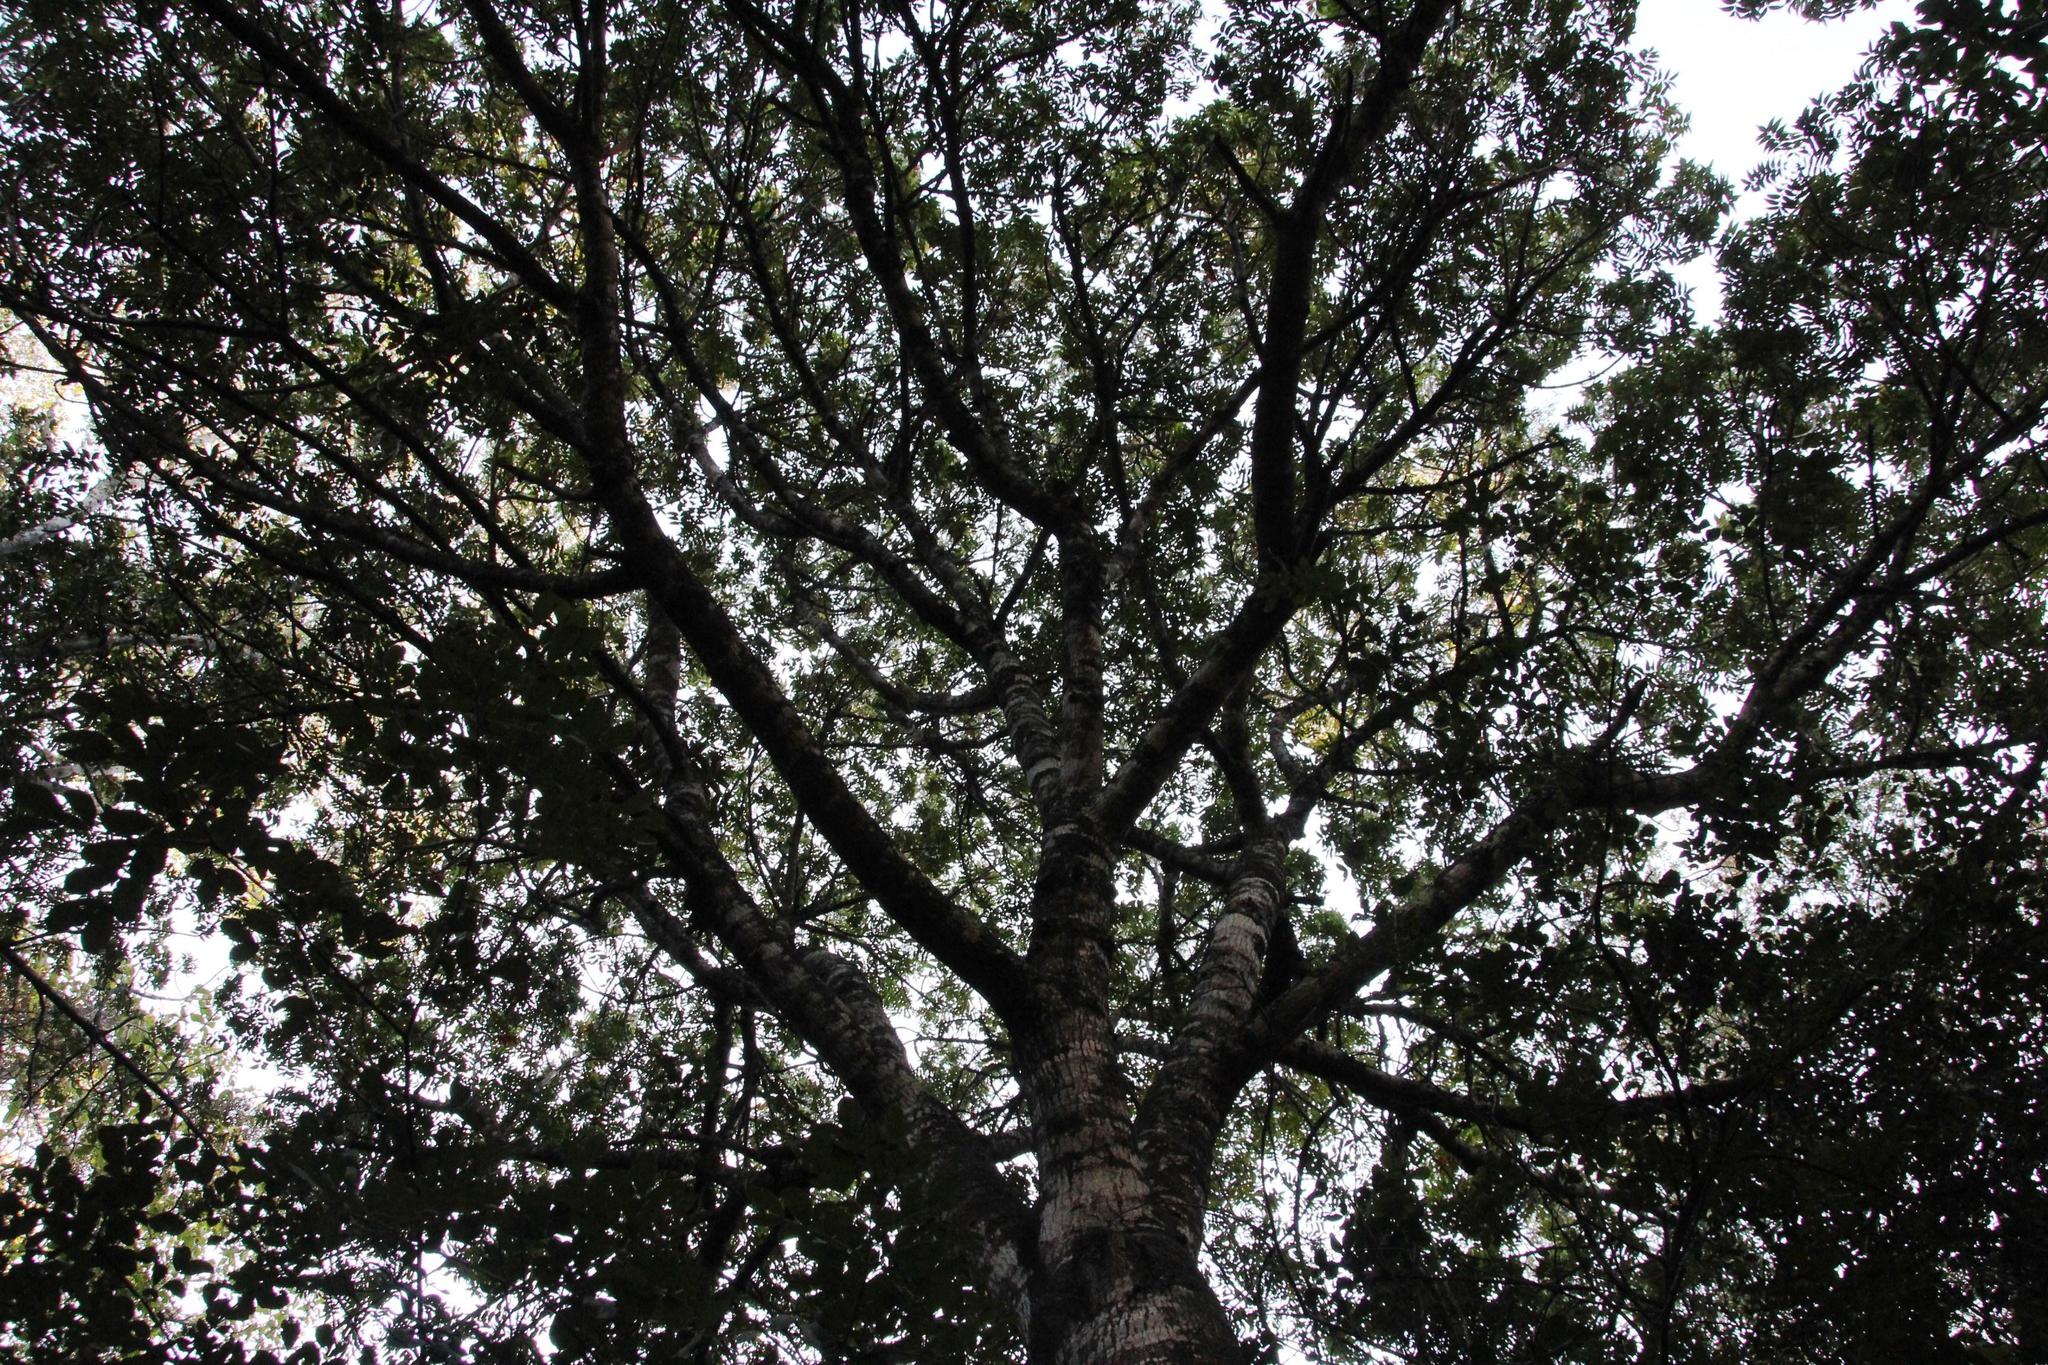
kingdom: Plantae
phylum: Tracheophyta
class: Magnoliopsida
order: Sapindales
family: Anacardiaceae
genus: Harpephyllum
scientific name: Harpephyllum caffrum
